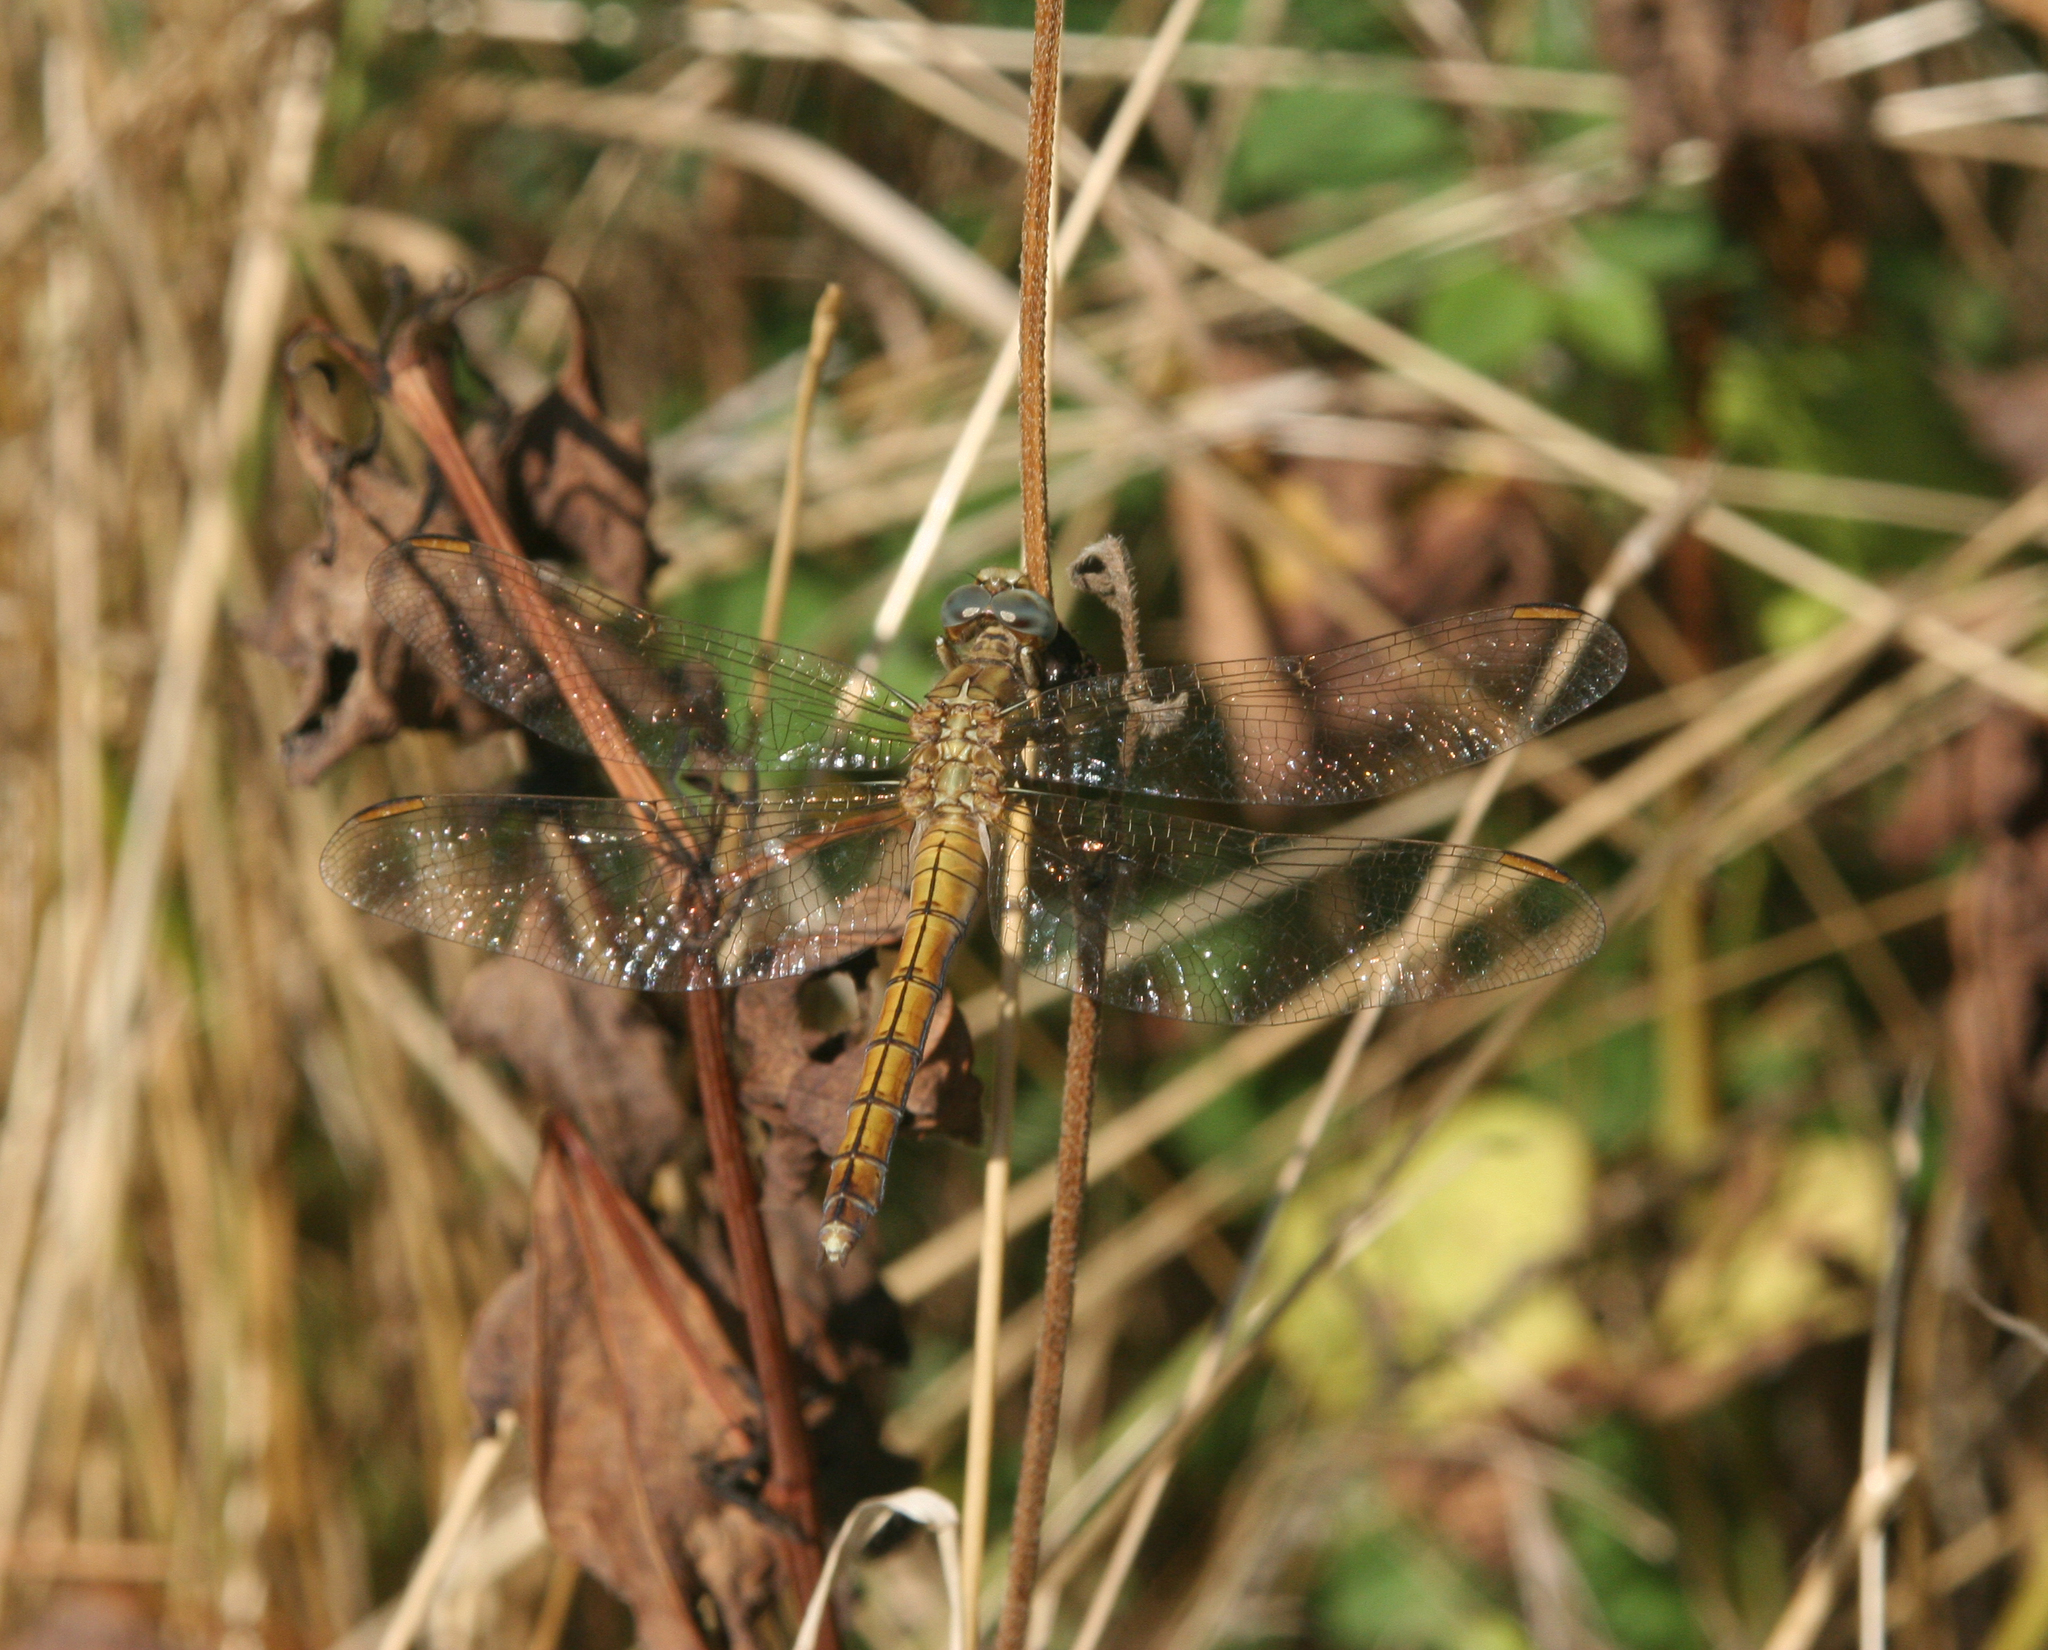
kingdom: Animalia
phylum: Arthropoda
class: Insecta
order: Odonata
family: Libellulidae
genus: Orthetrum
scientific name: Orthetrum coerulescens
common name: Keeled skimmer
